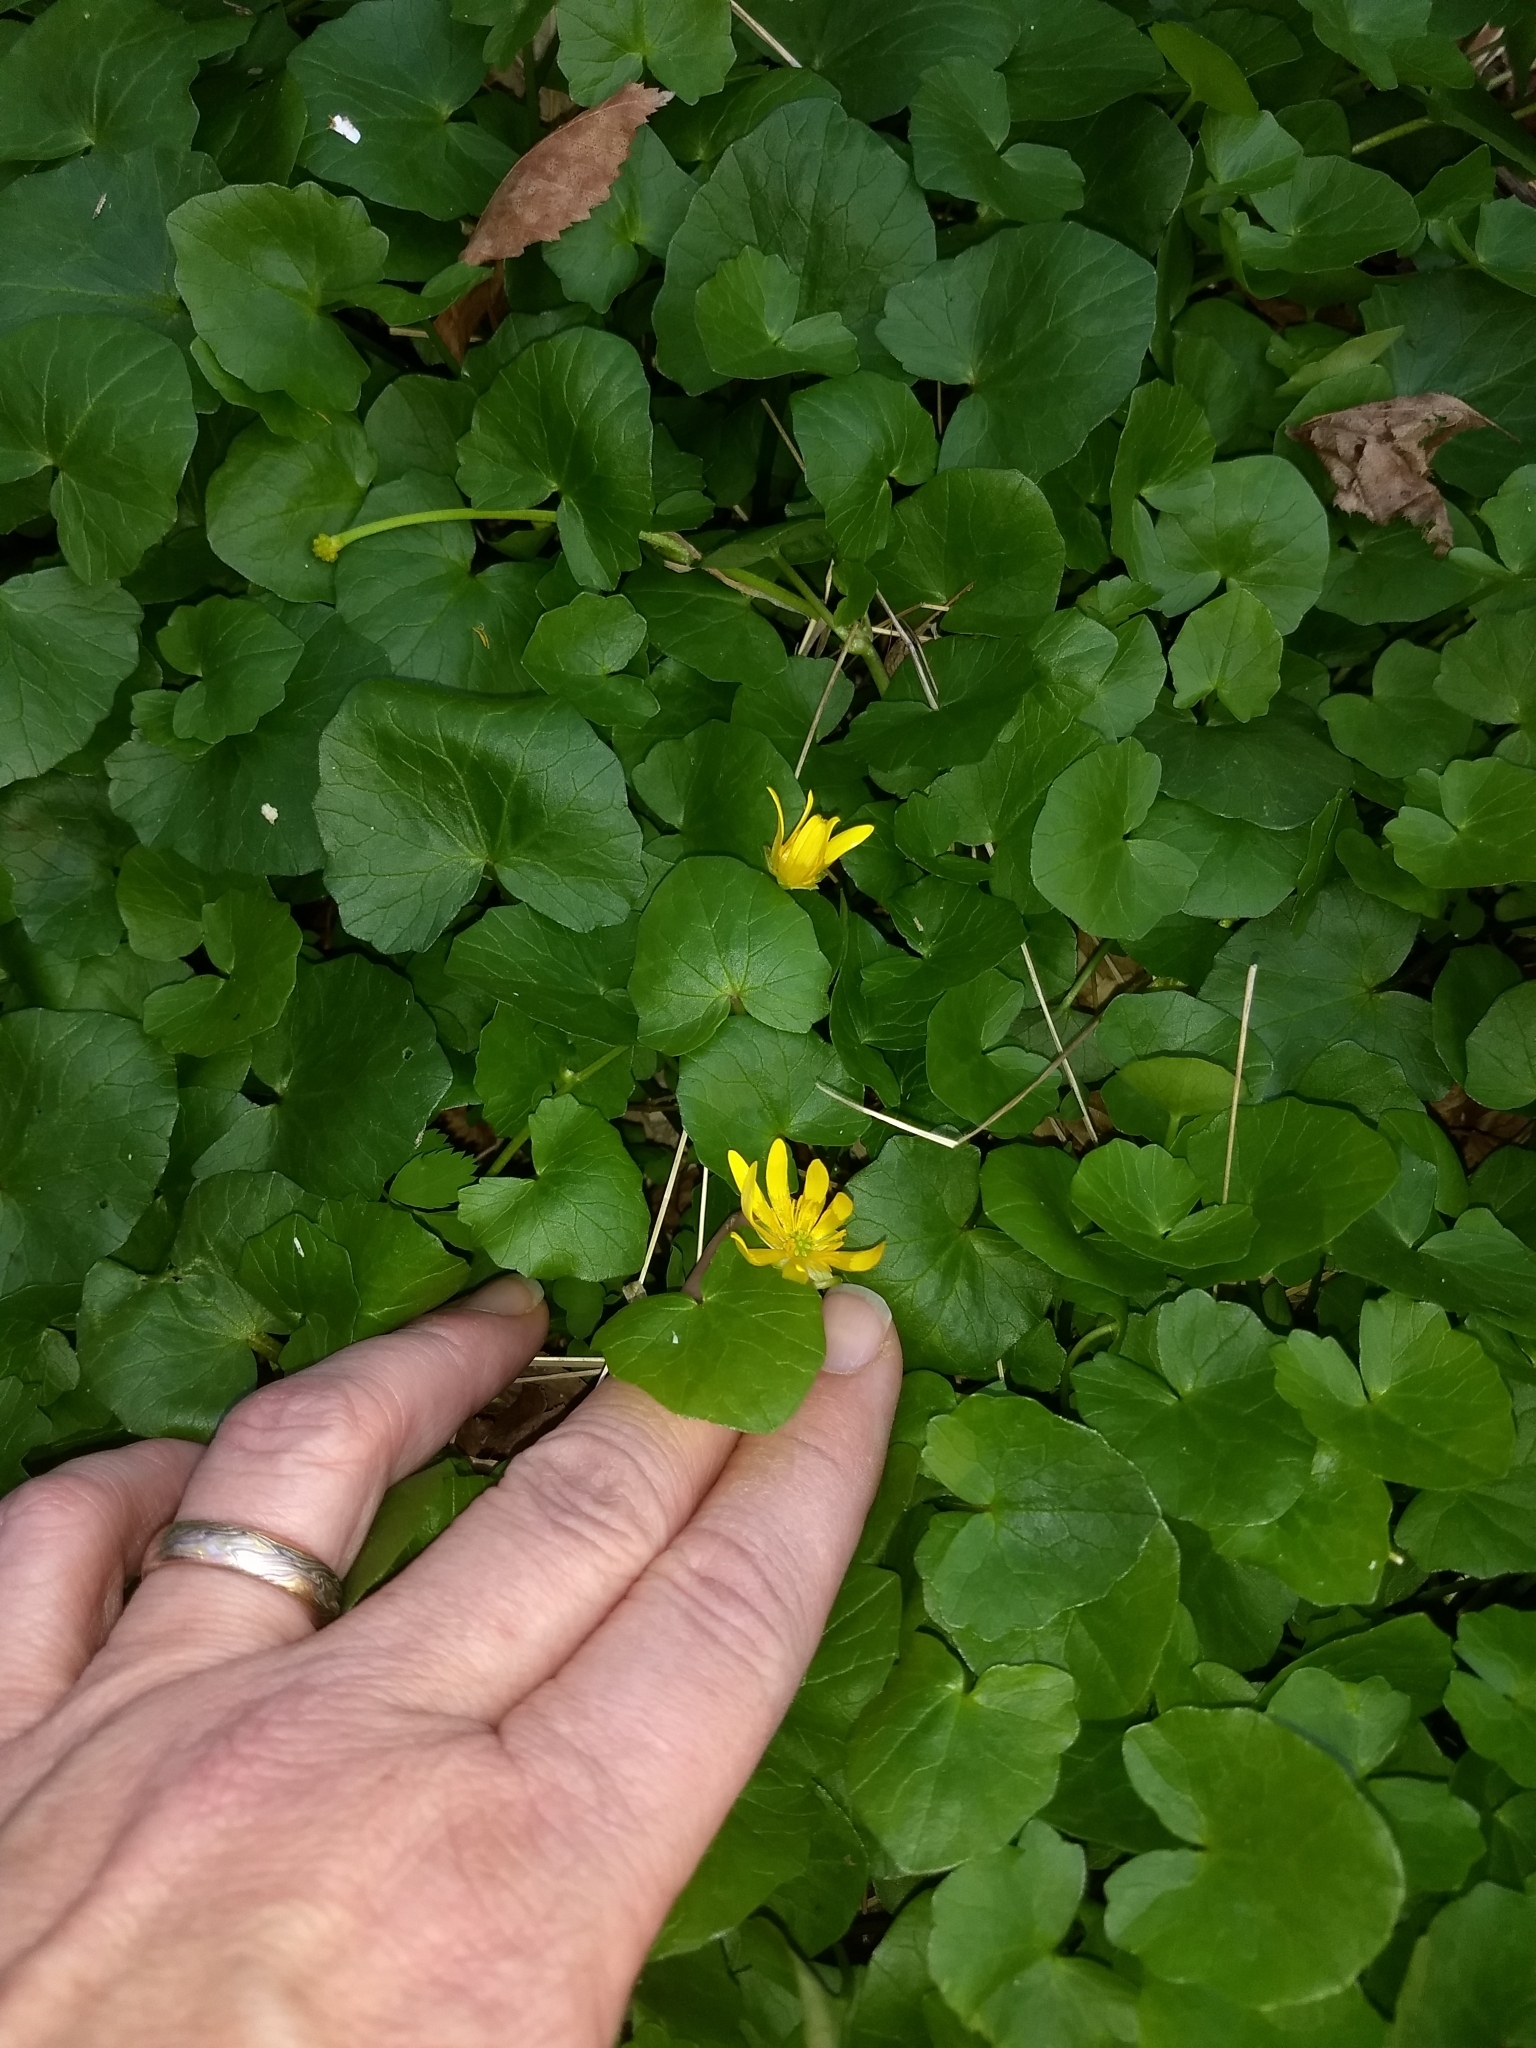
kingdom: Plantae
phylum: Tracheophyta
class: Magnoliopsida
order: Ranunculales
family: Ranunculaceae
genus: Ficaria
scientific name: Ficaria verna
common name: Lesser celandine
